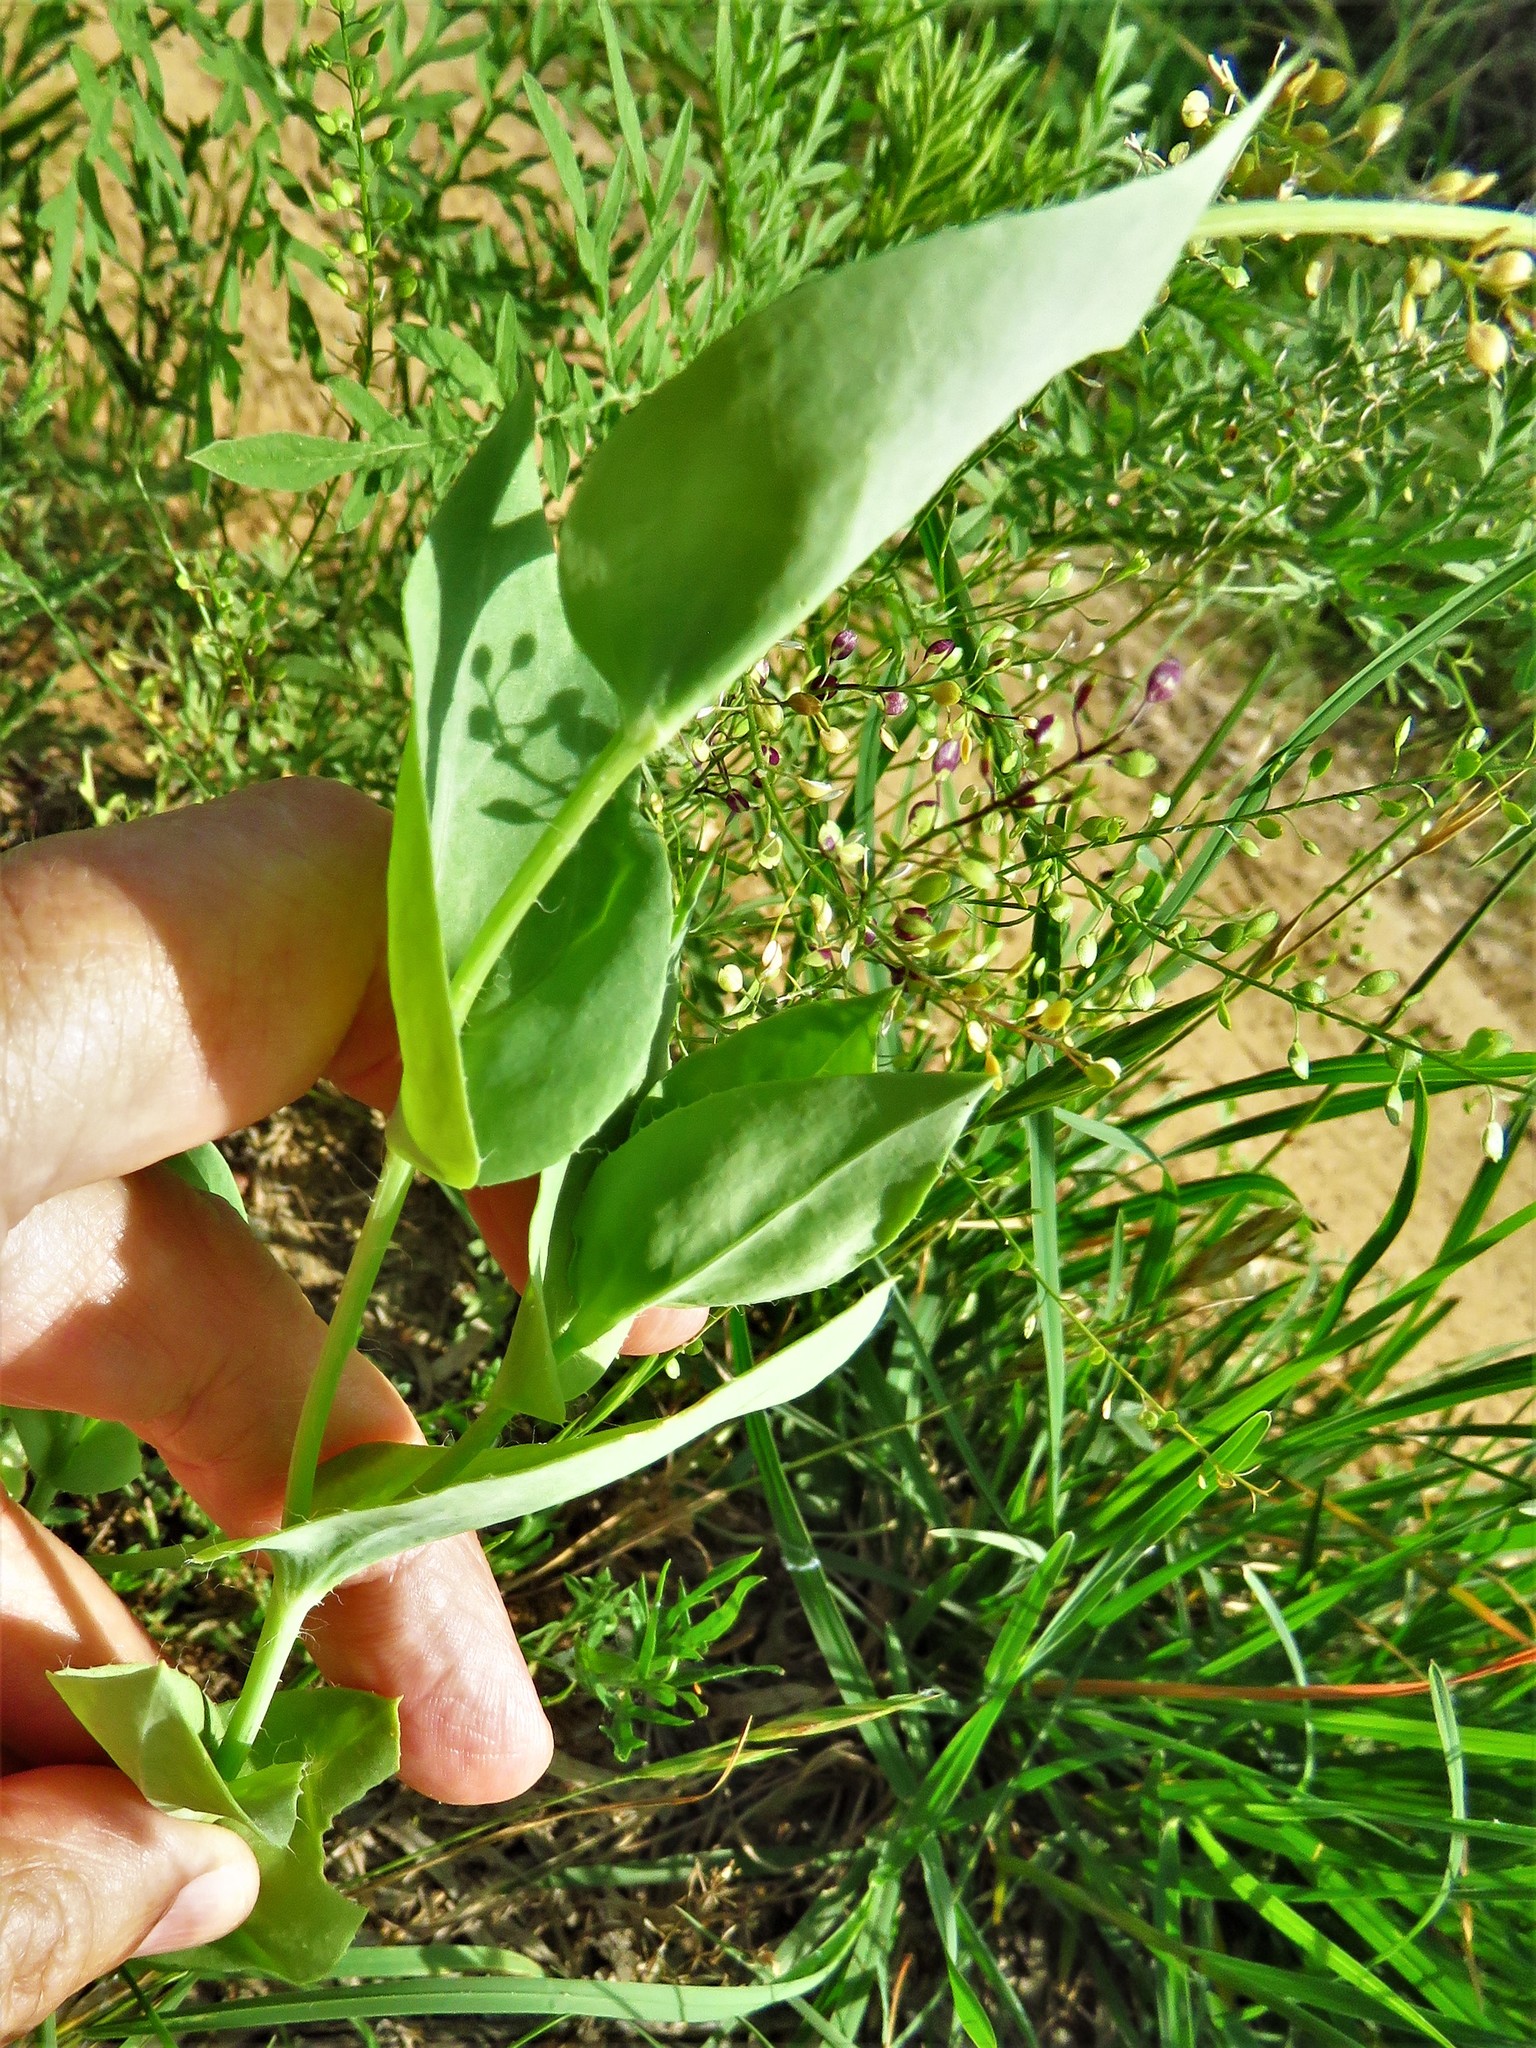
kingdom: Plantae
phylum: Tracheophyta
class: Magnoliopsida
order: Asterales
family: Asteraceae
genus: Amblyolepis
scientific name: Amblyolepis setigera
